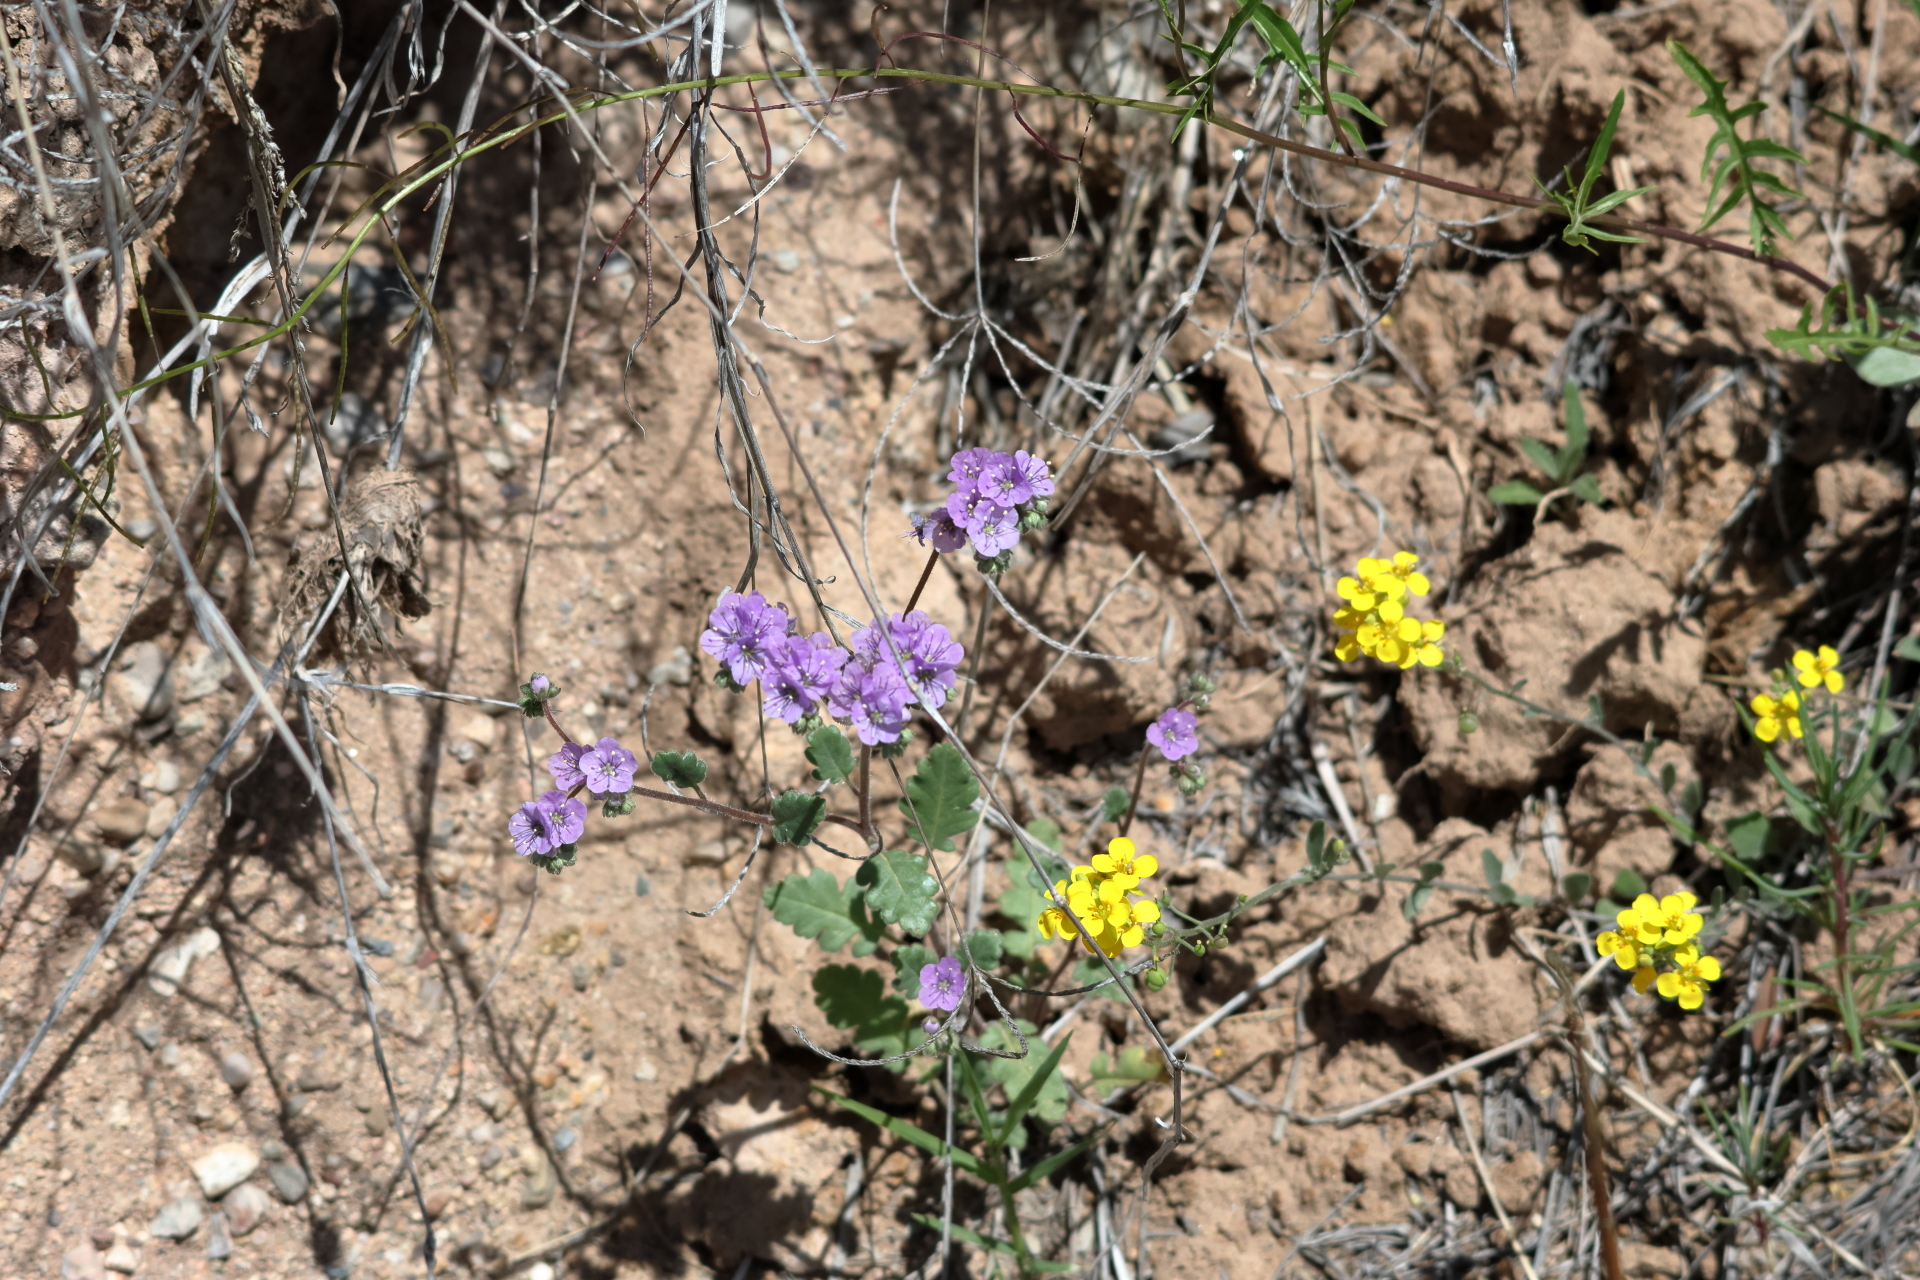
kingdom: Plantae
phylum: Tracheophyta
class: Magnoliopsida
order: Boraginales
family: Hydrophyllaceae
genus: Phacelia
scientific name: Phacelia bombycina
